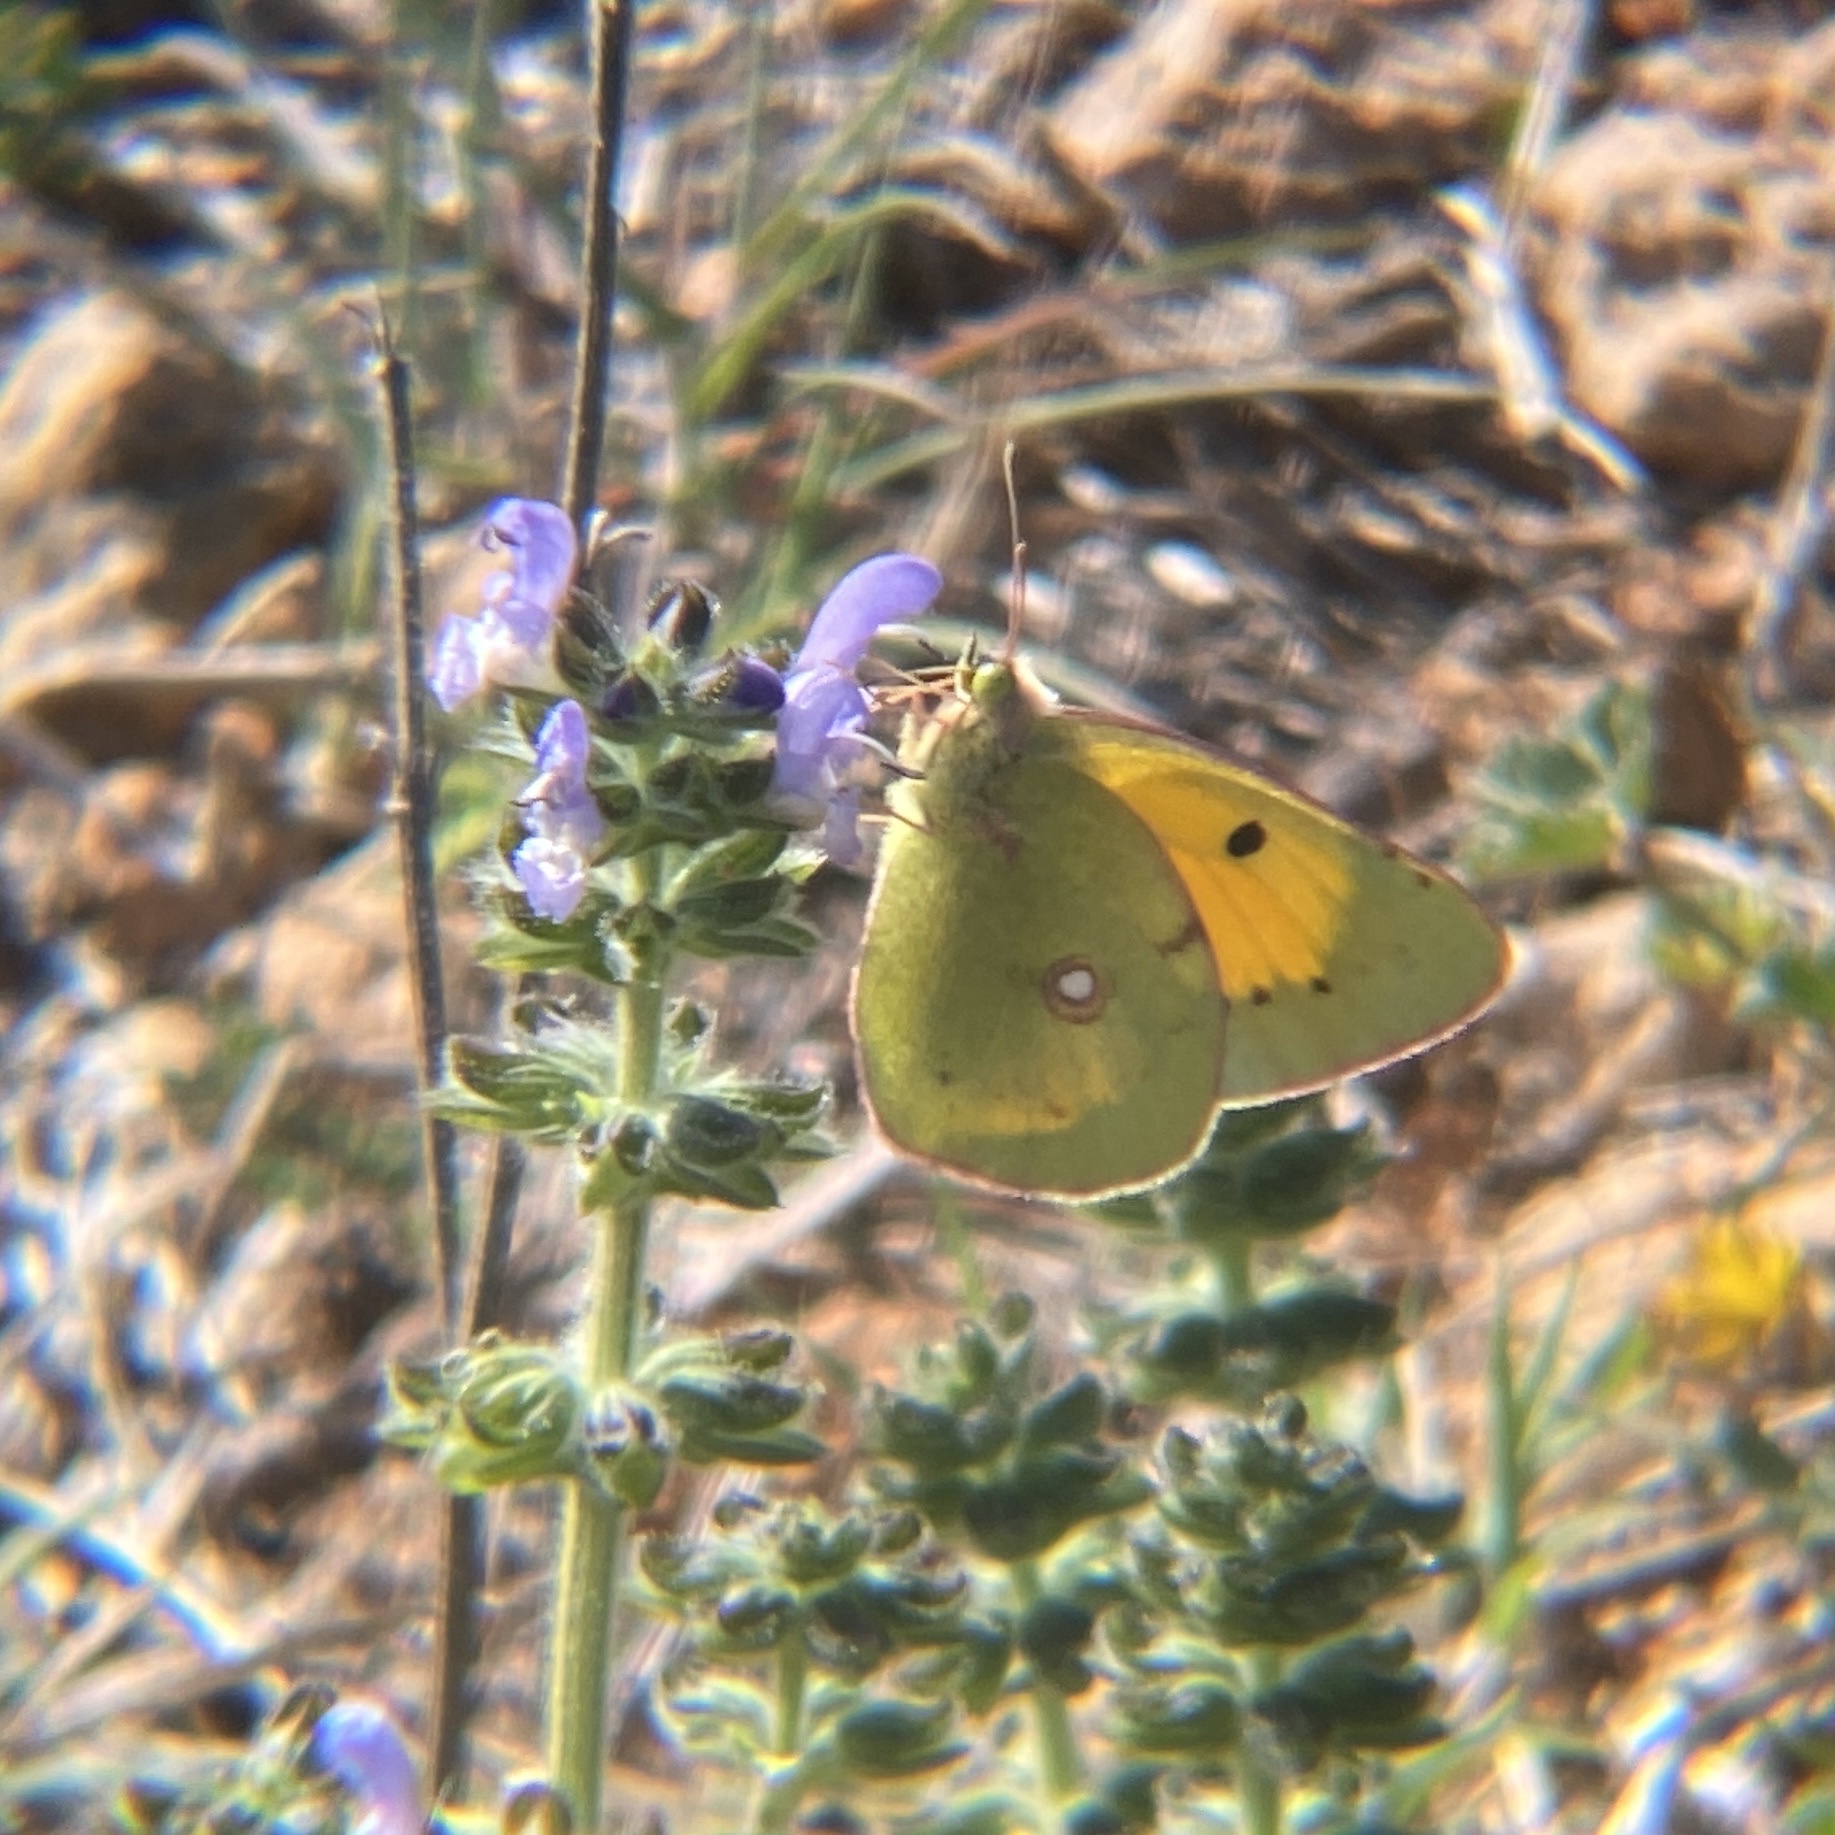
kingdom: Animalia
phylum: Arthropoda
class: Insecta
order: Lepidoptera
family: Pieridae
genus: Colias
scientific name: Colias croceus
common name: Clouded yellow
